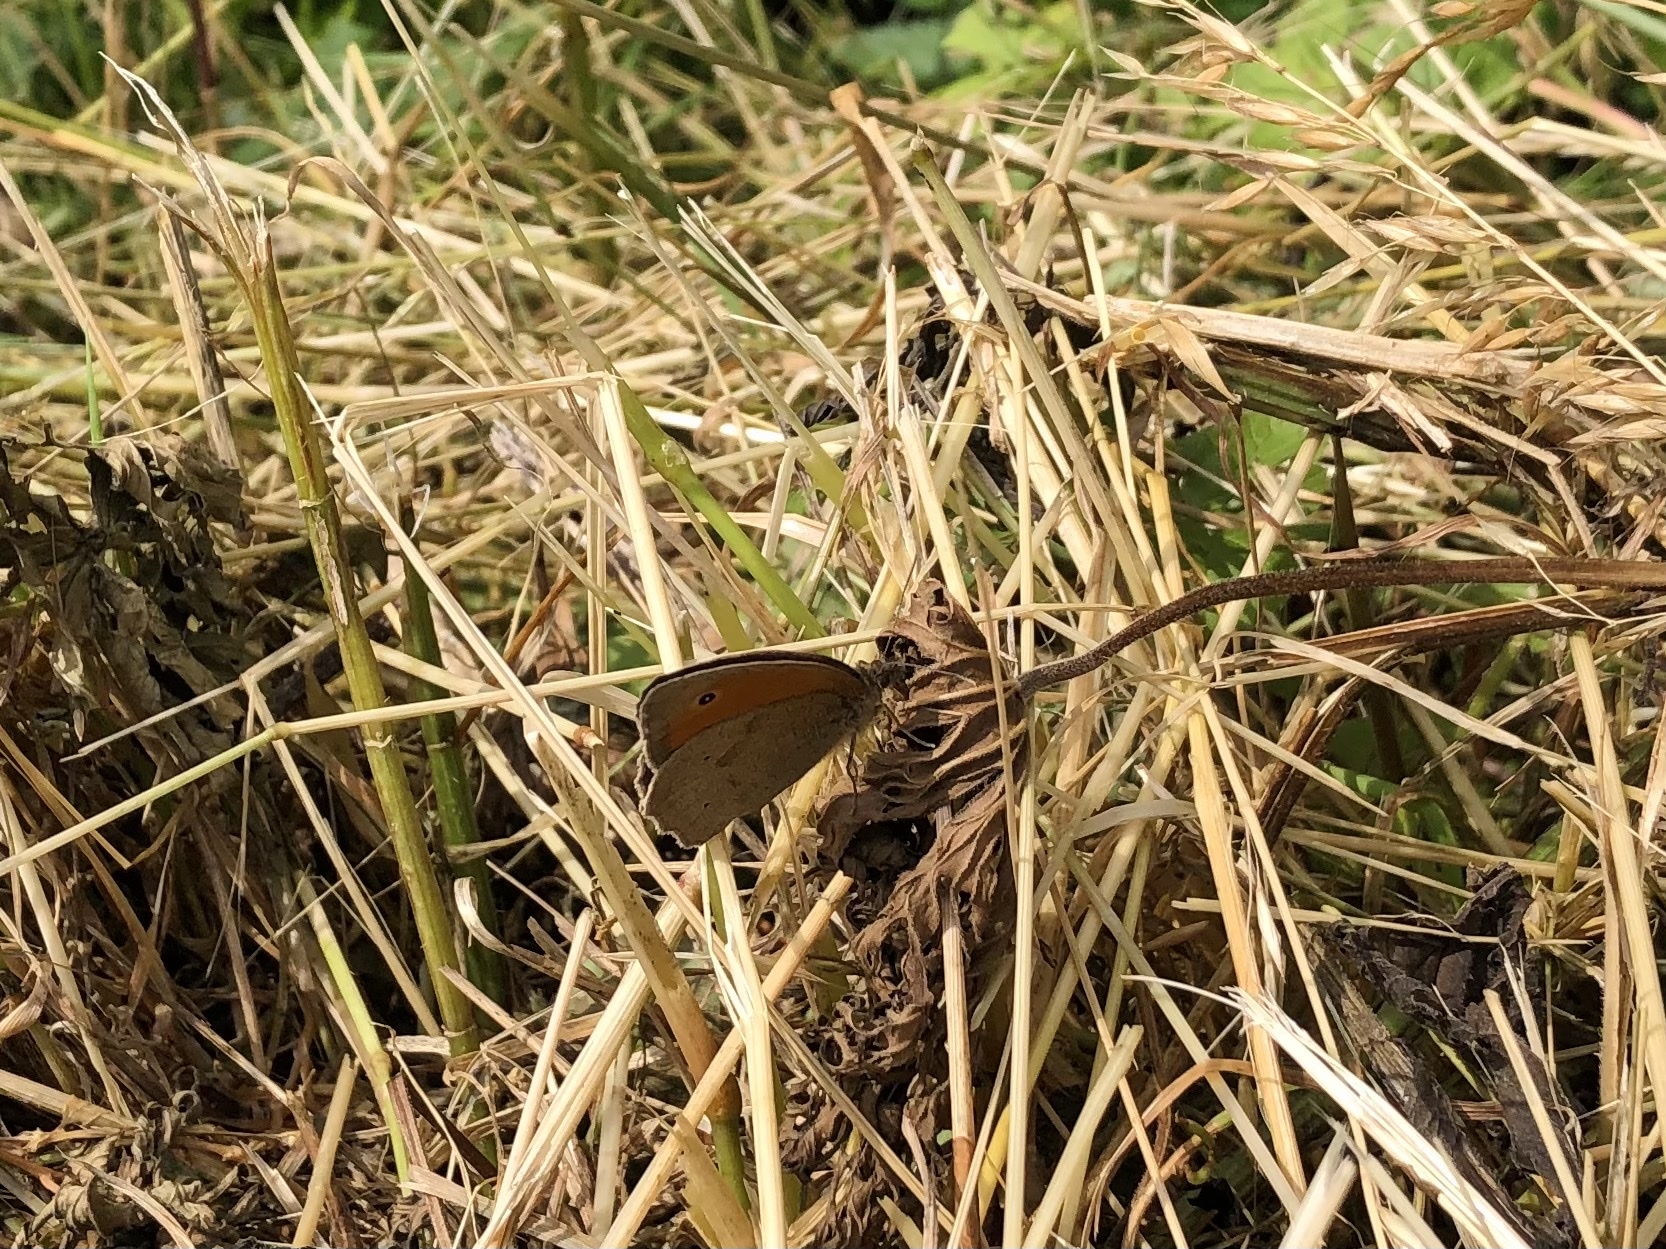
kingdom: Animalia
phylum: Arthropoda
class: Insecta
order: Lepidoptera
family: Nymphalidae
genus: Maniola
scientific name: Maniola jurtina
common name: Meadow brown
